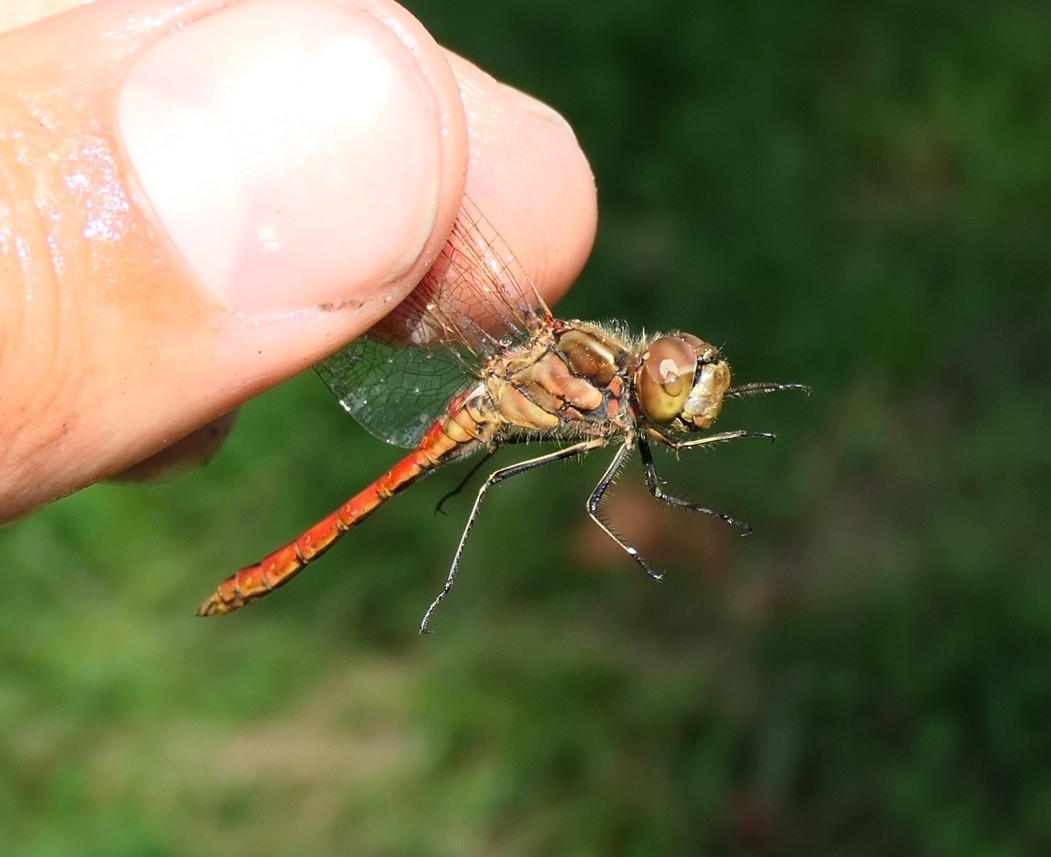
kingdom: Animalia
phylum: Arthropoda
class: Insecta
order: Odonata
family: Libellulidae
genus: Sympetrum
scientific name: Sympetrum vulgatum
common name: Vagrant darter
